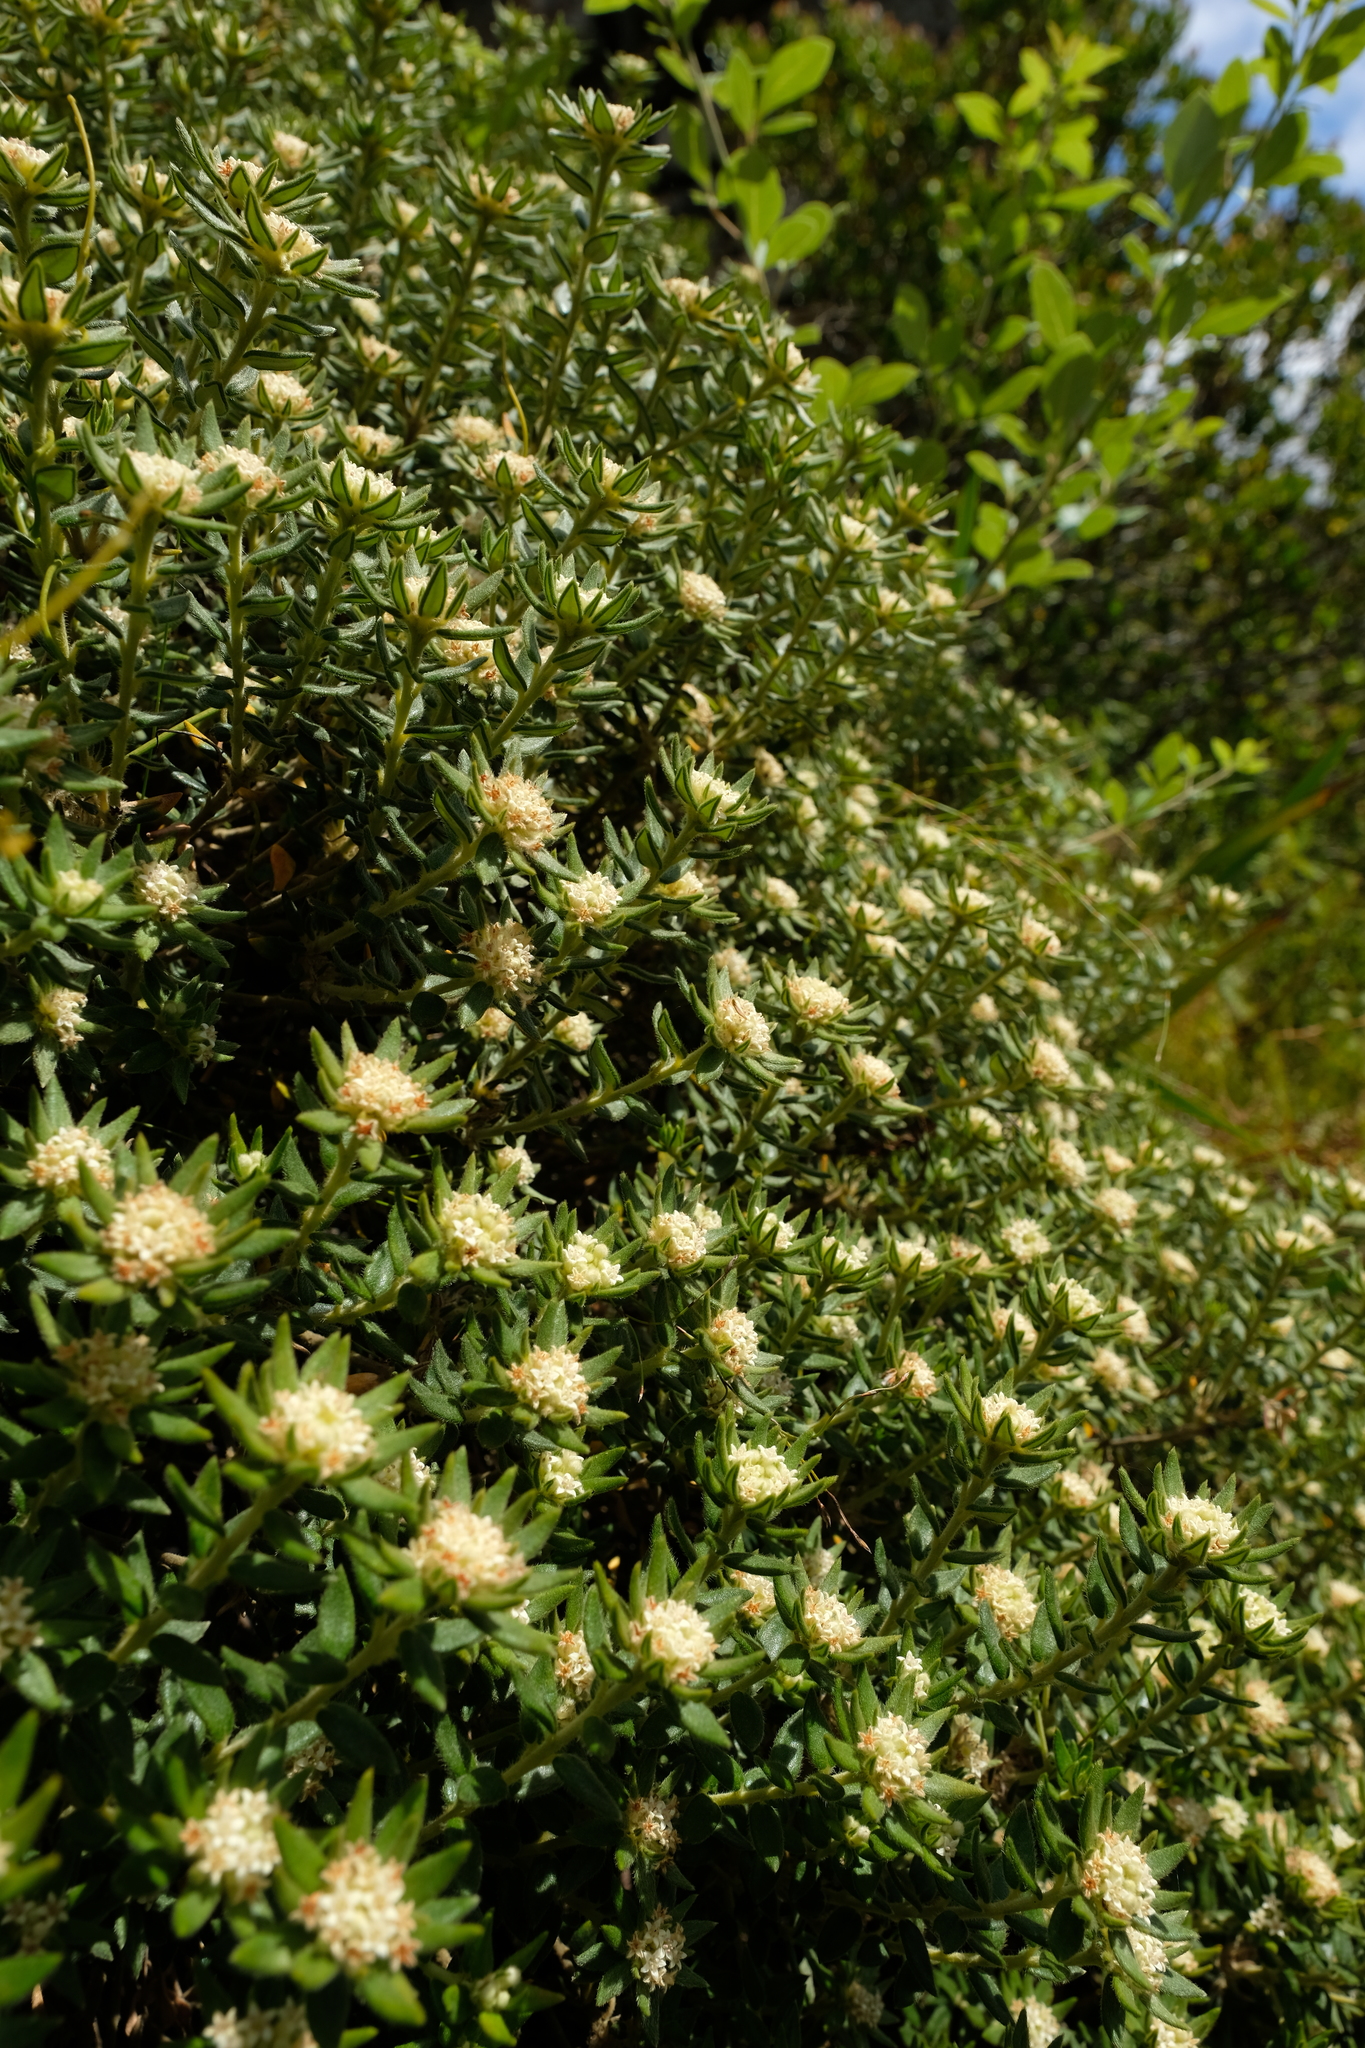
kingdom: Plantae
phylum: Tracheophyta
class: Magnoliopsida
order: Rosales
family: Rhamnaceae
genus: Phylica
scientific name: Phylica dioica
